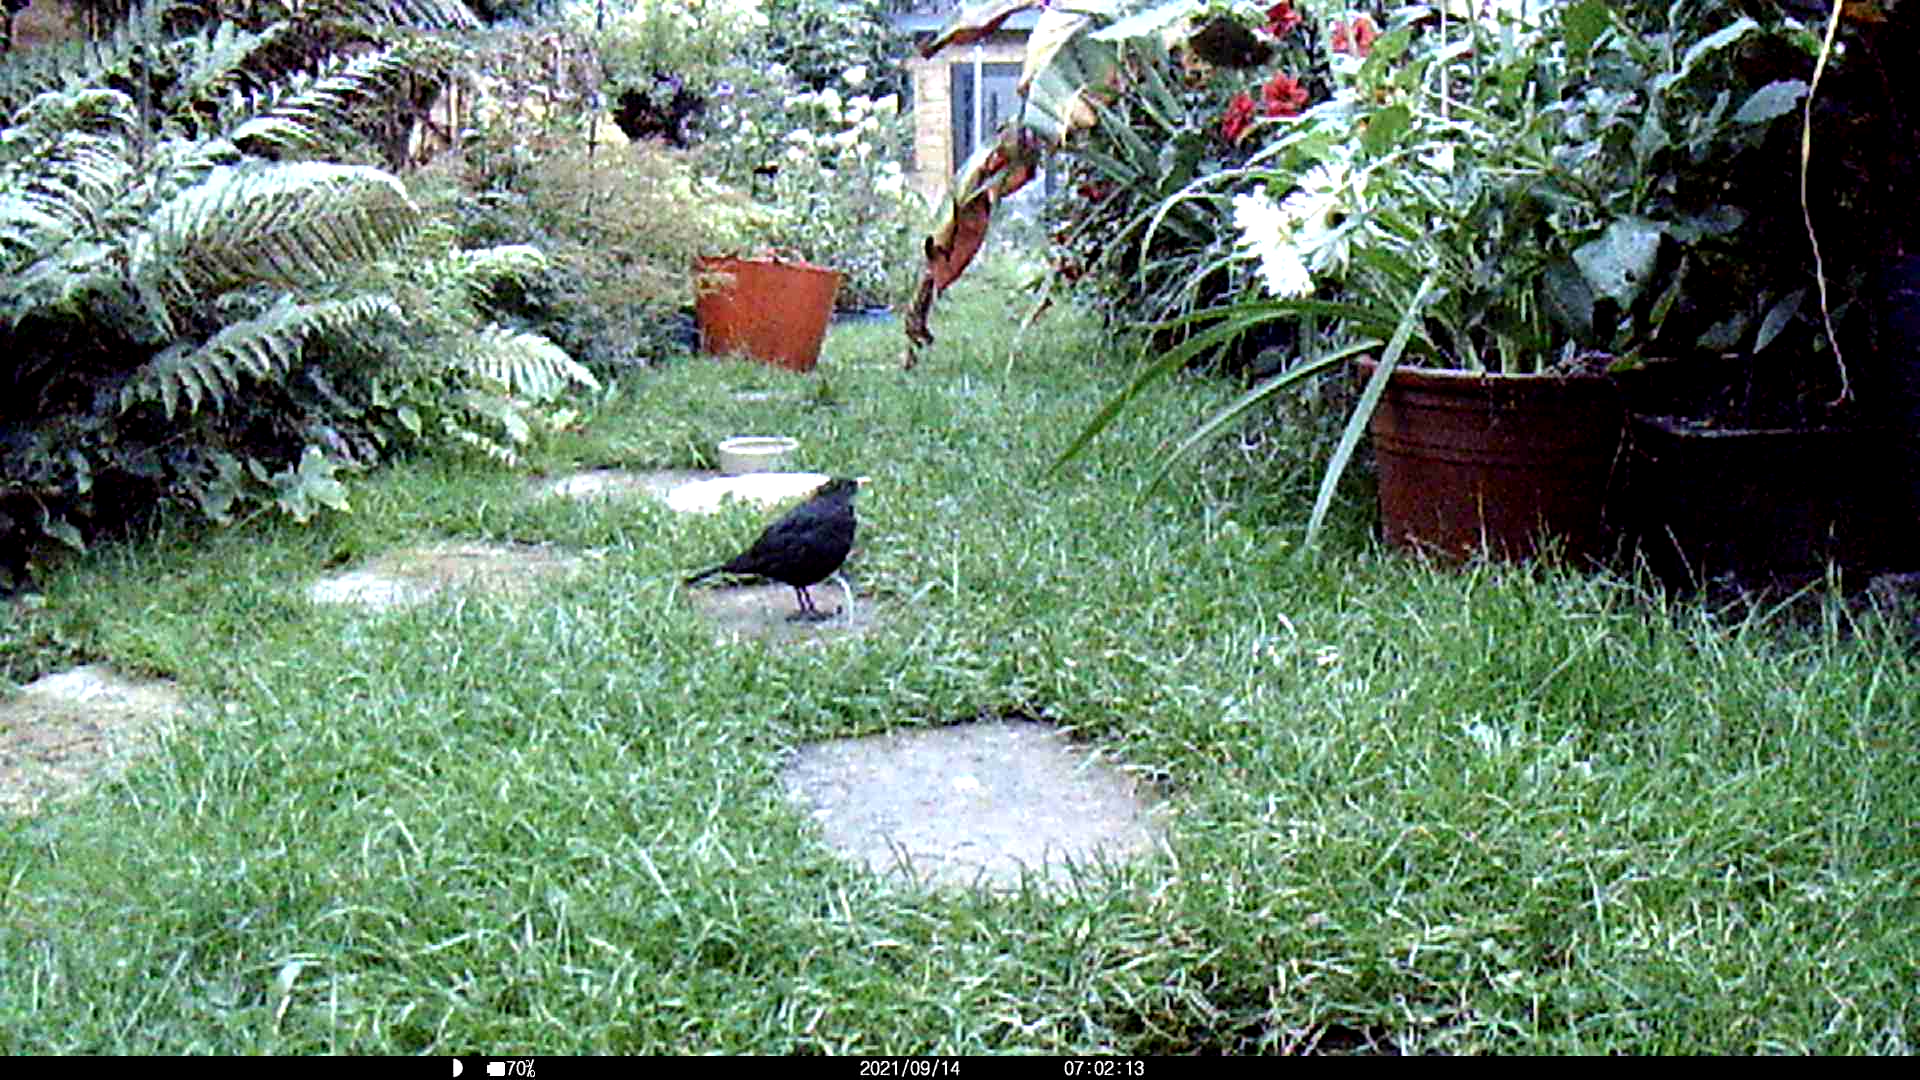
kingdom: Animalia
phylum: Chordata
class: Aves
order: Passeriformes
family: Turdidae
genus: Turdus
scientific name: Turdus merula
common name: Common blackbird
